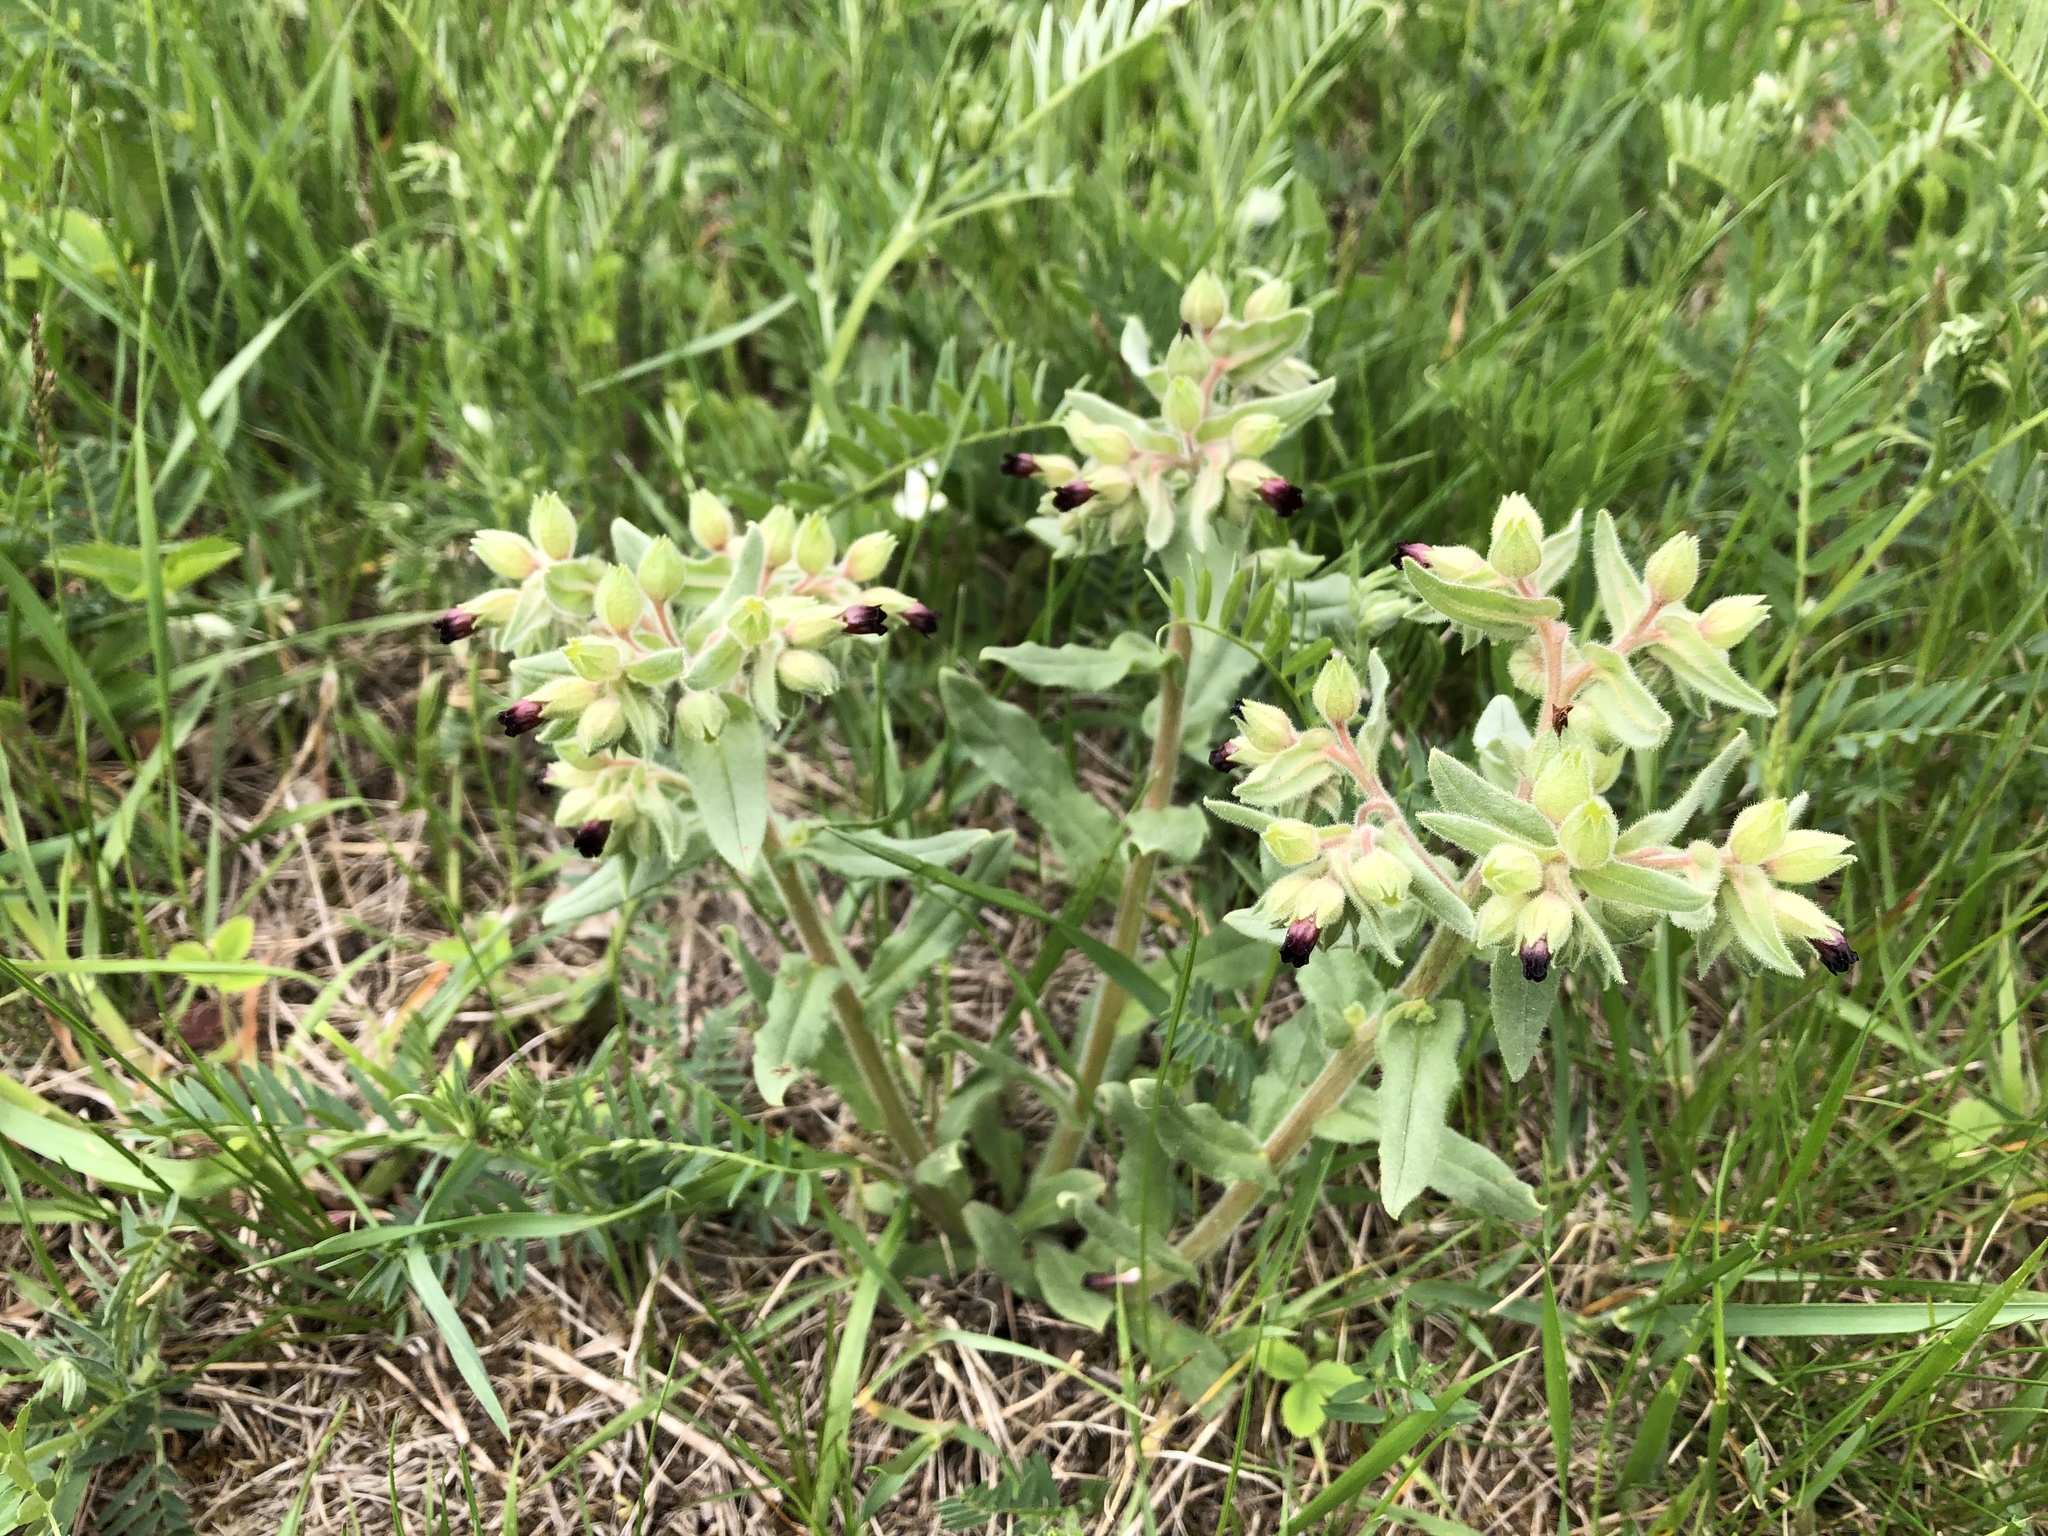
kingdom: Plantae
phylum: Tracheophyta
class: Magnoliopsida
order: Boraginales
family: Boraginaceae
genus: Nonea
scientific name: Nonea pulla
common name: Brown nonea
